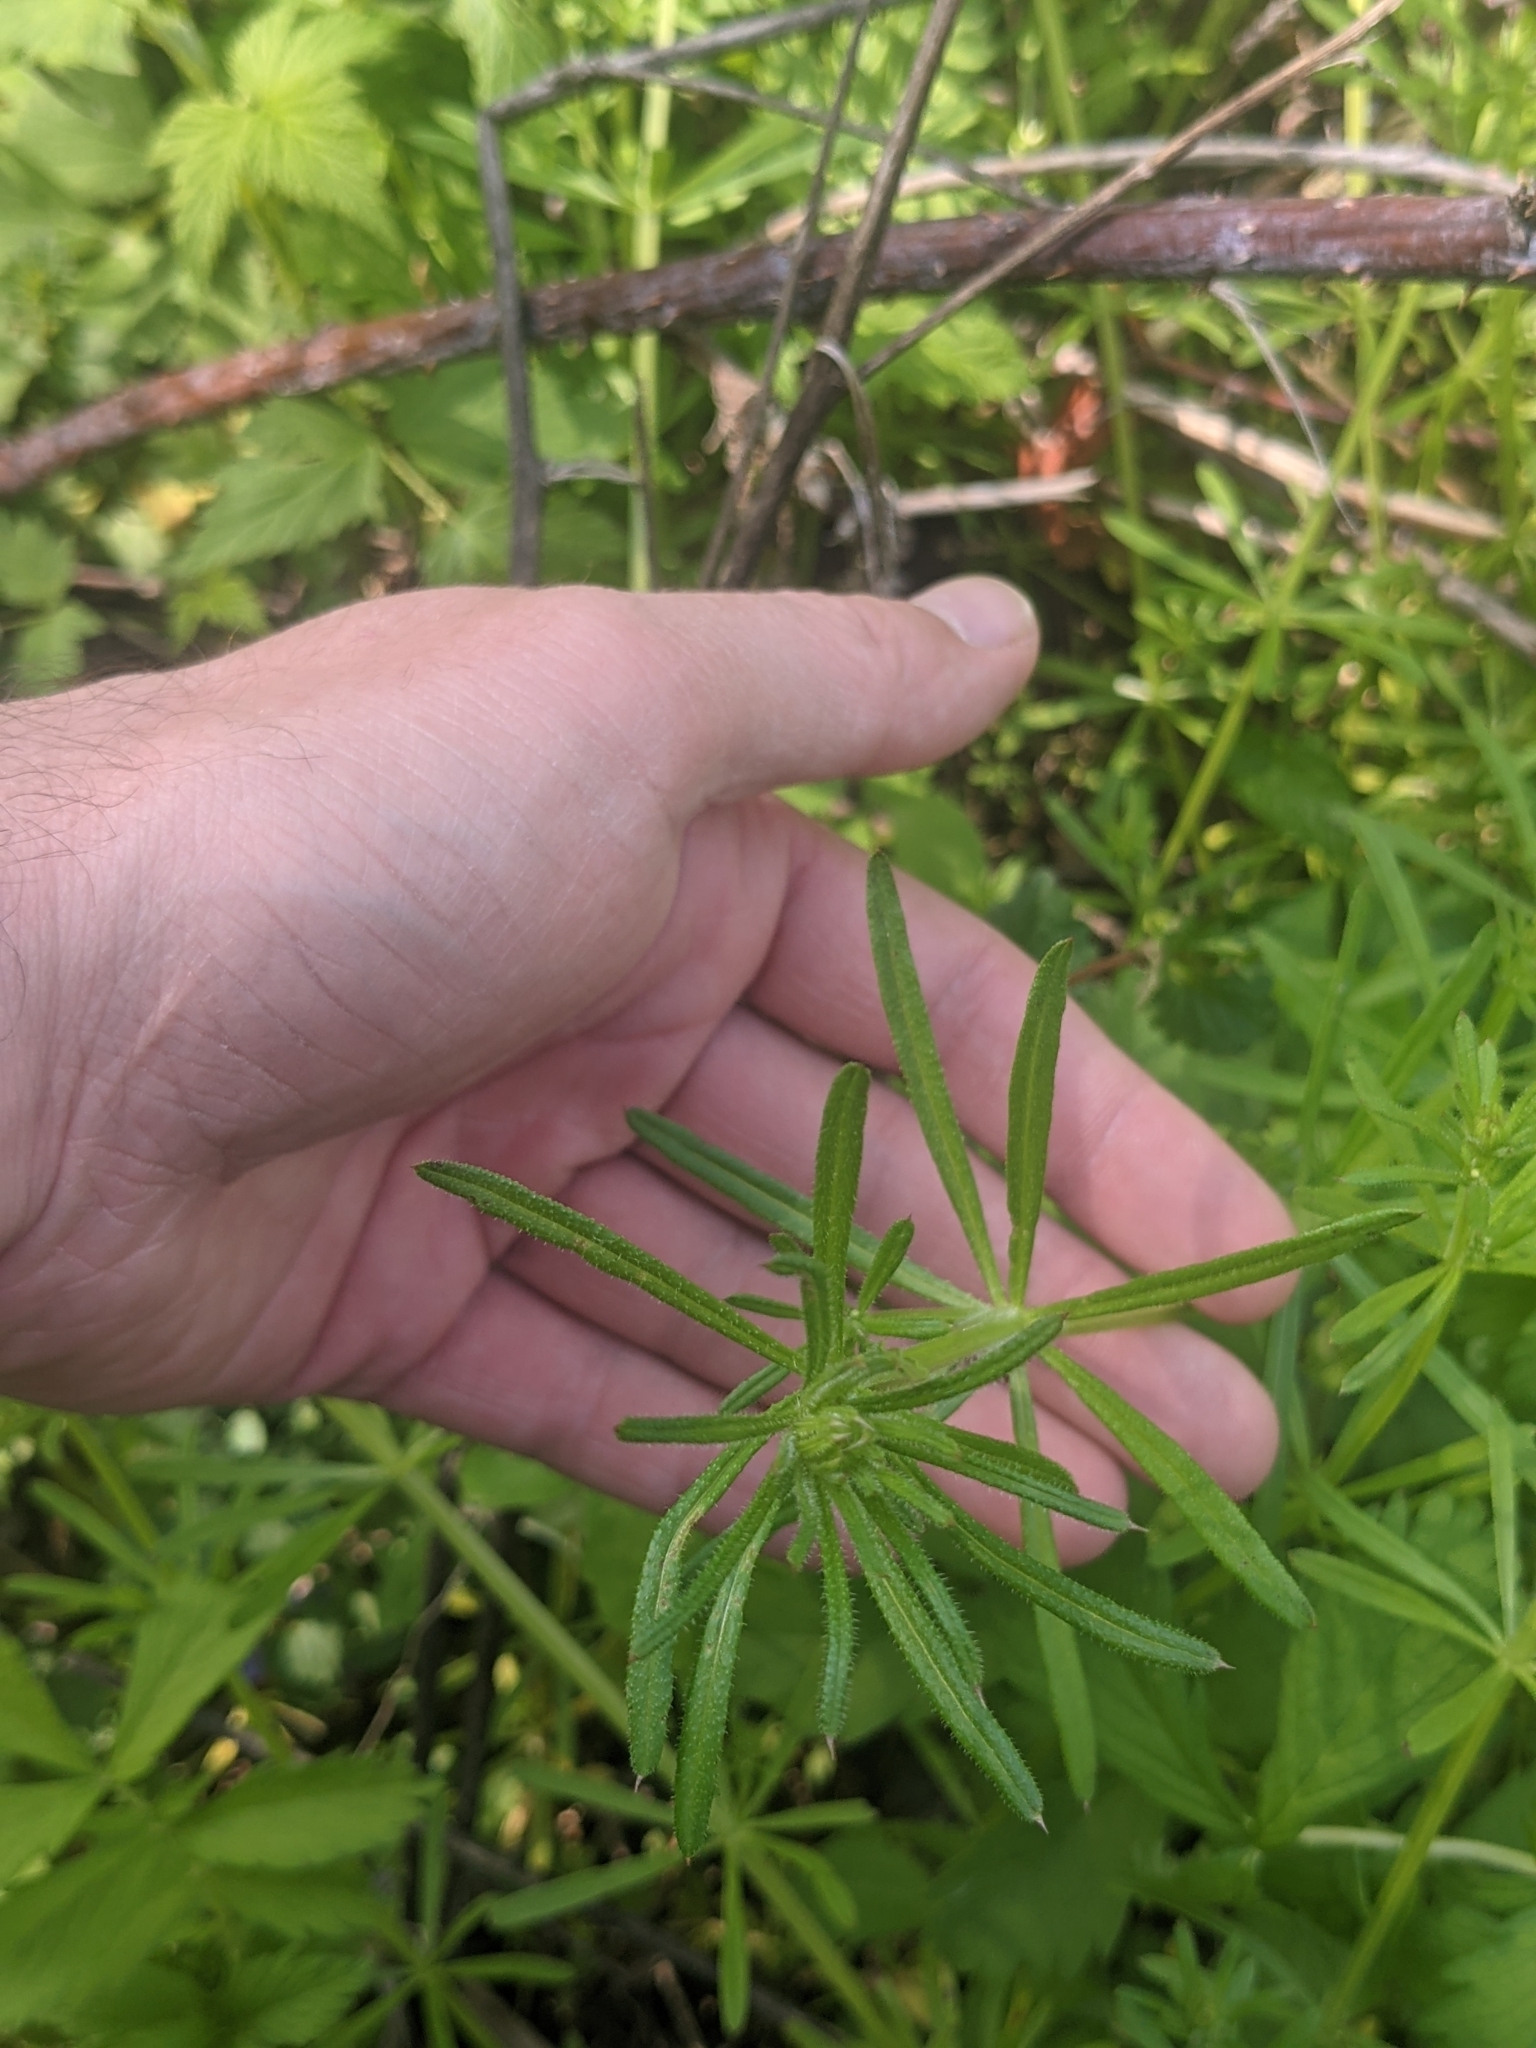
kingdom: Plantae
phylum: Tracheophyta
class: Magnoliopsida
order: Gentianales
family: Rubiaceae
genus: Galium
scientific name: Galium aparine
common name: Cleavers
